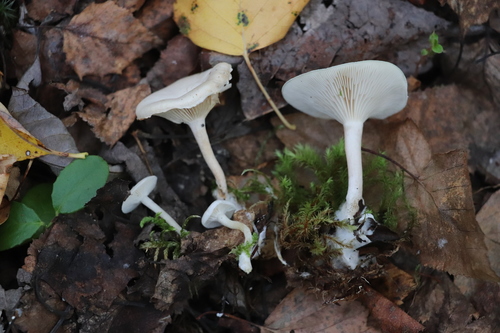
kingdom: Fungi
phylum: Basidiomycota
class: Agaricomycetes
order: Agaricales
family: Tricholomataceae
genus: Clitocybe
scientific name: Clitocybe
